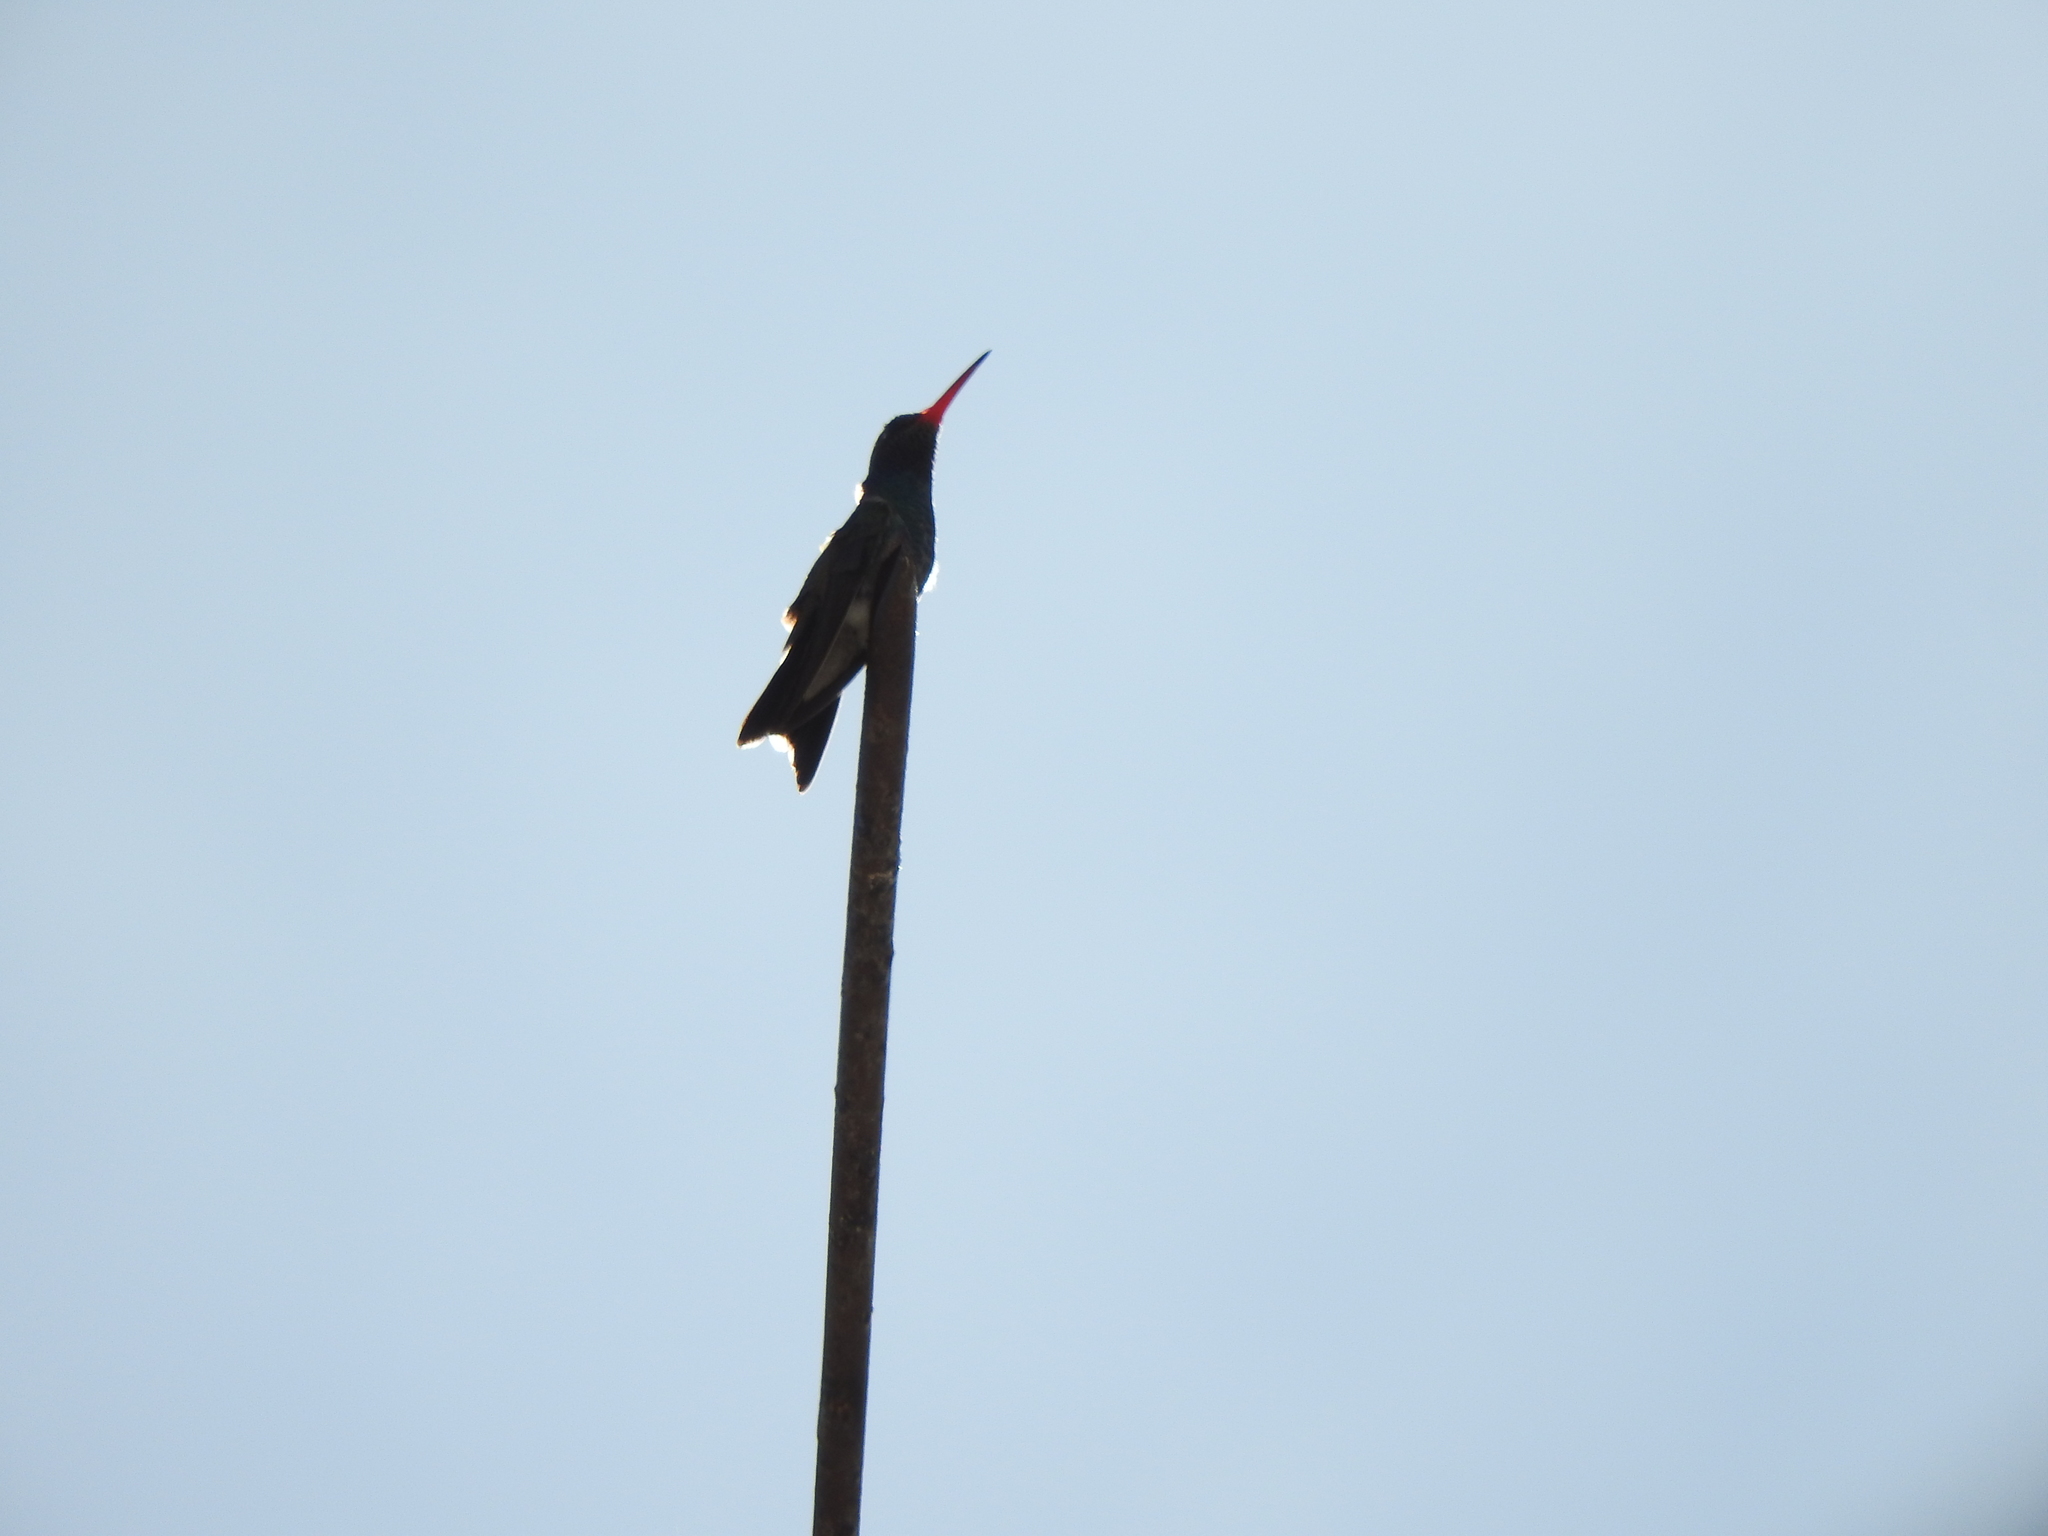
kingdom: Animalia
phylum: Chordata
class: Aves
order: Apodiformes
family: Trochilidae
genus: Cynanthus
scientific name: Cynanthus latirostris
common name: Broad-billed hummingbird
